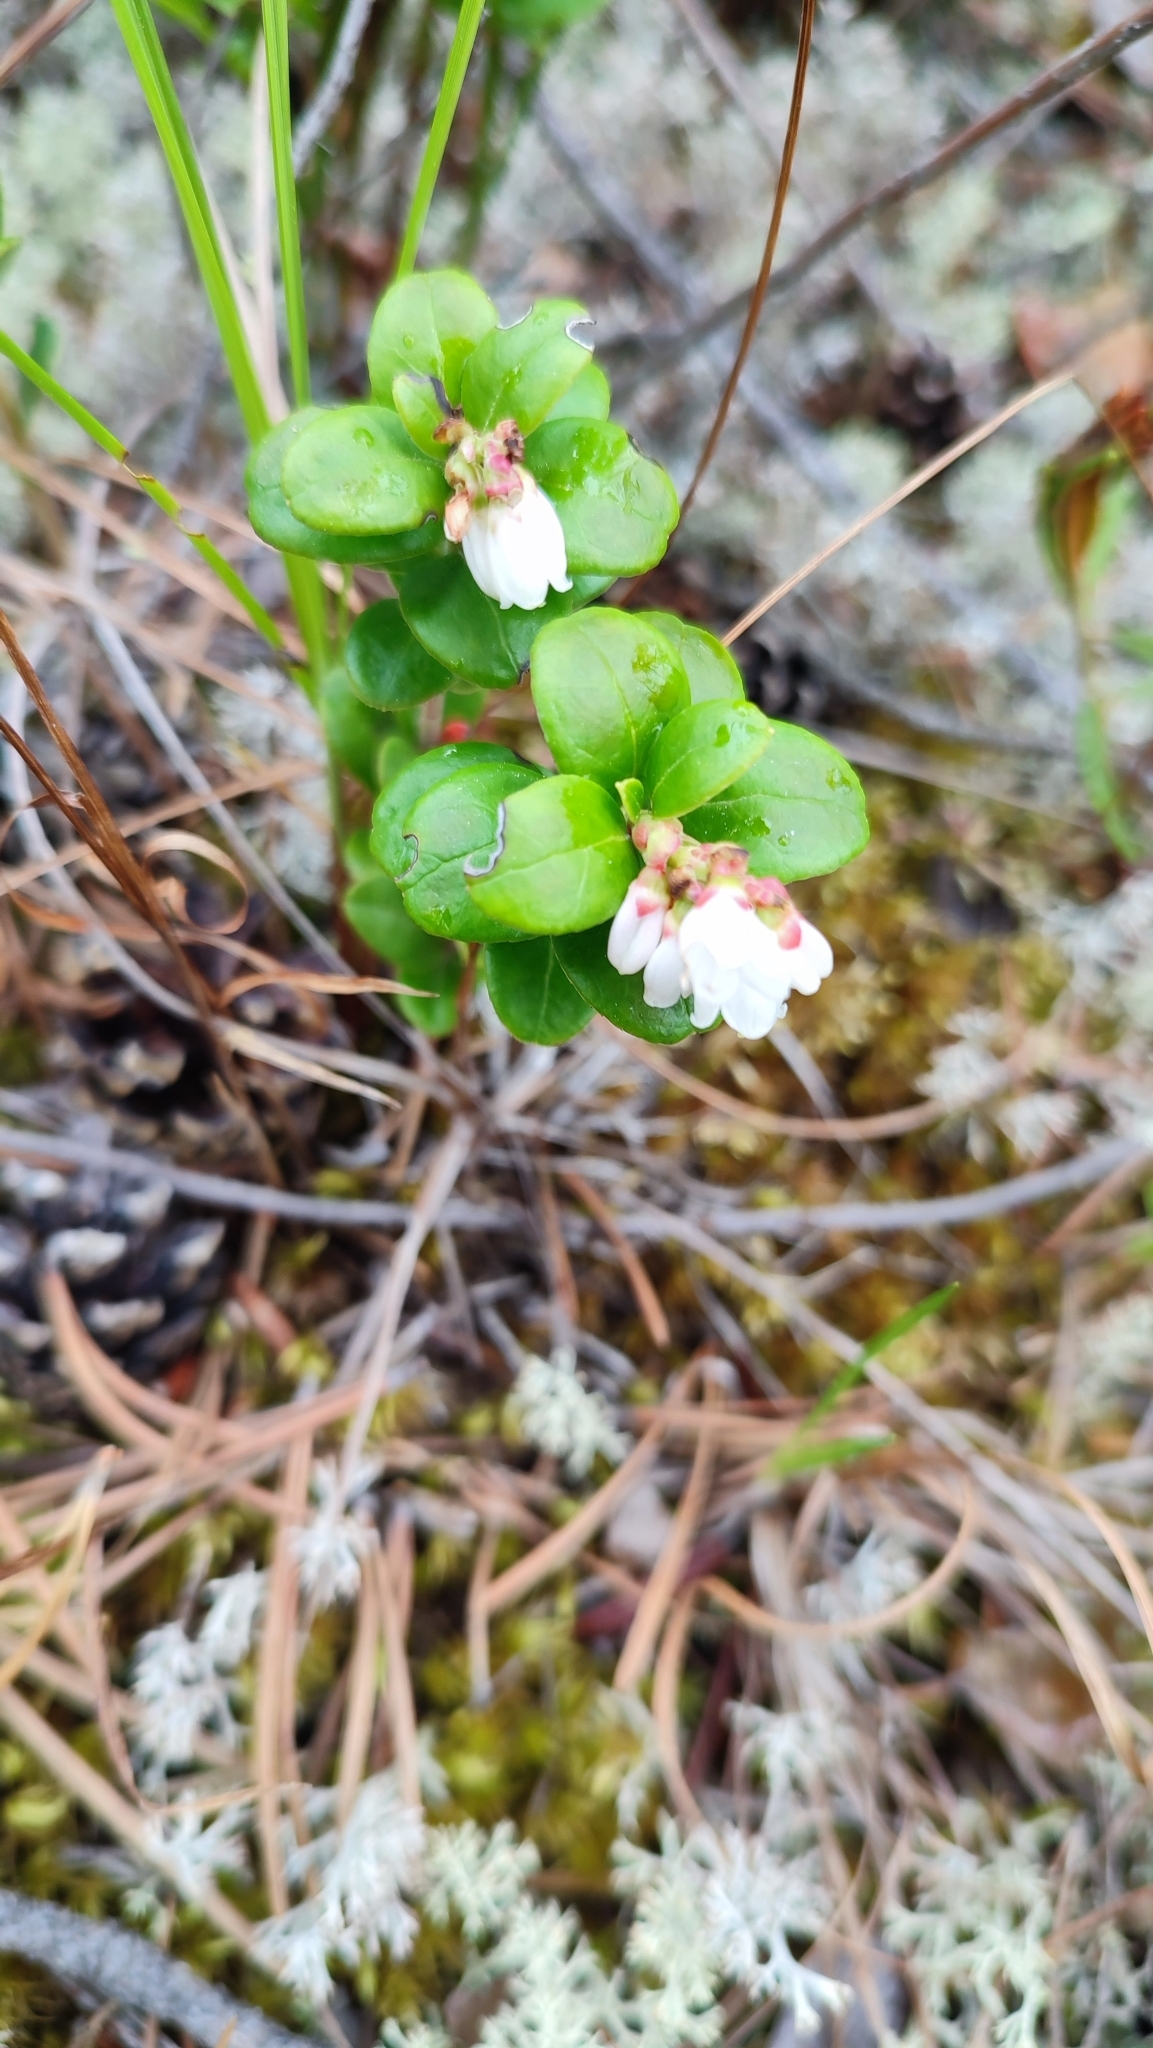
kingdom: Plantae
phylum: Tracheophyta
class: Magnoliopsida
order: Ericales
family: Ericaceae
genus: Vaccinium
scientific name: Vaccinium vitis-idaea
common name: Cowberry
